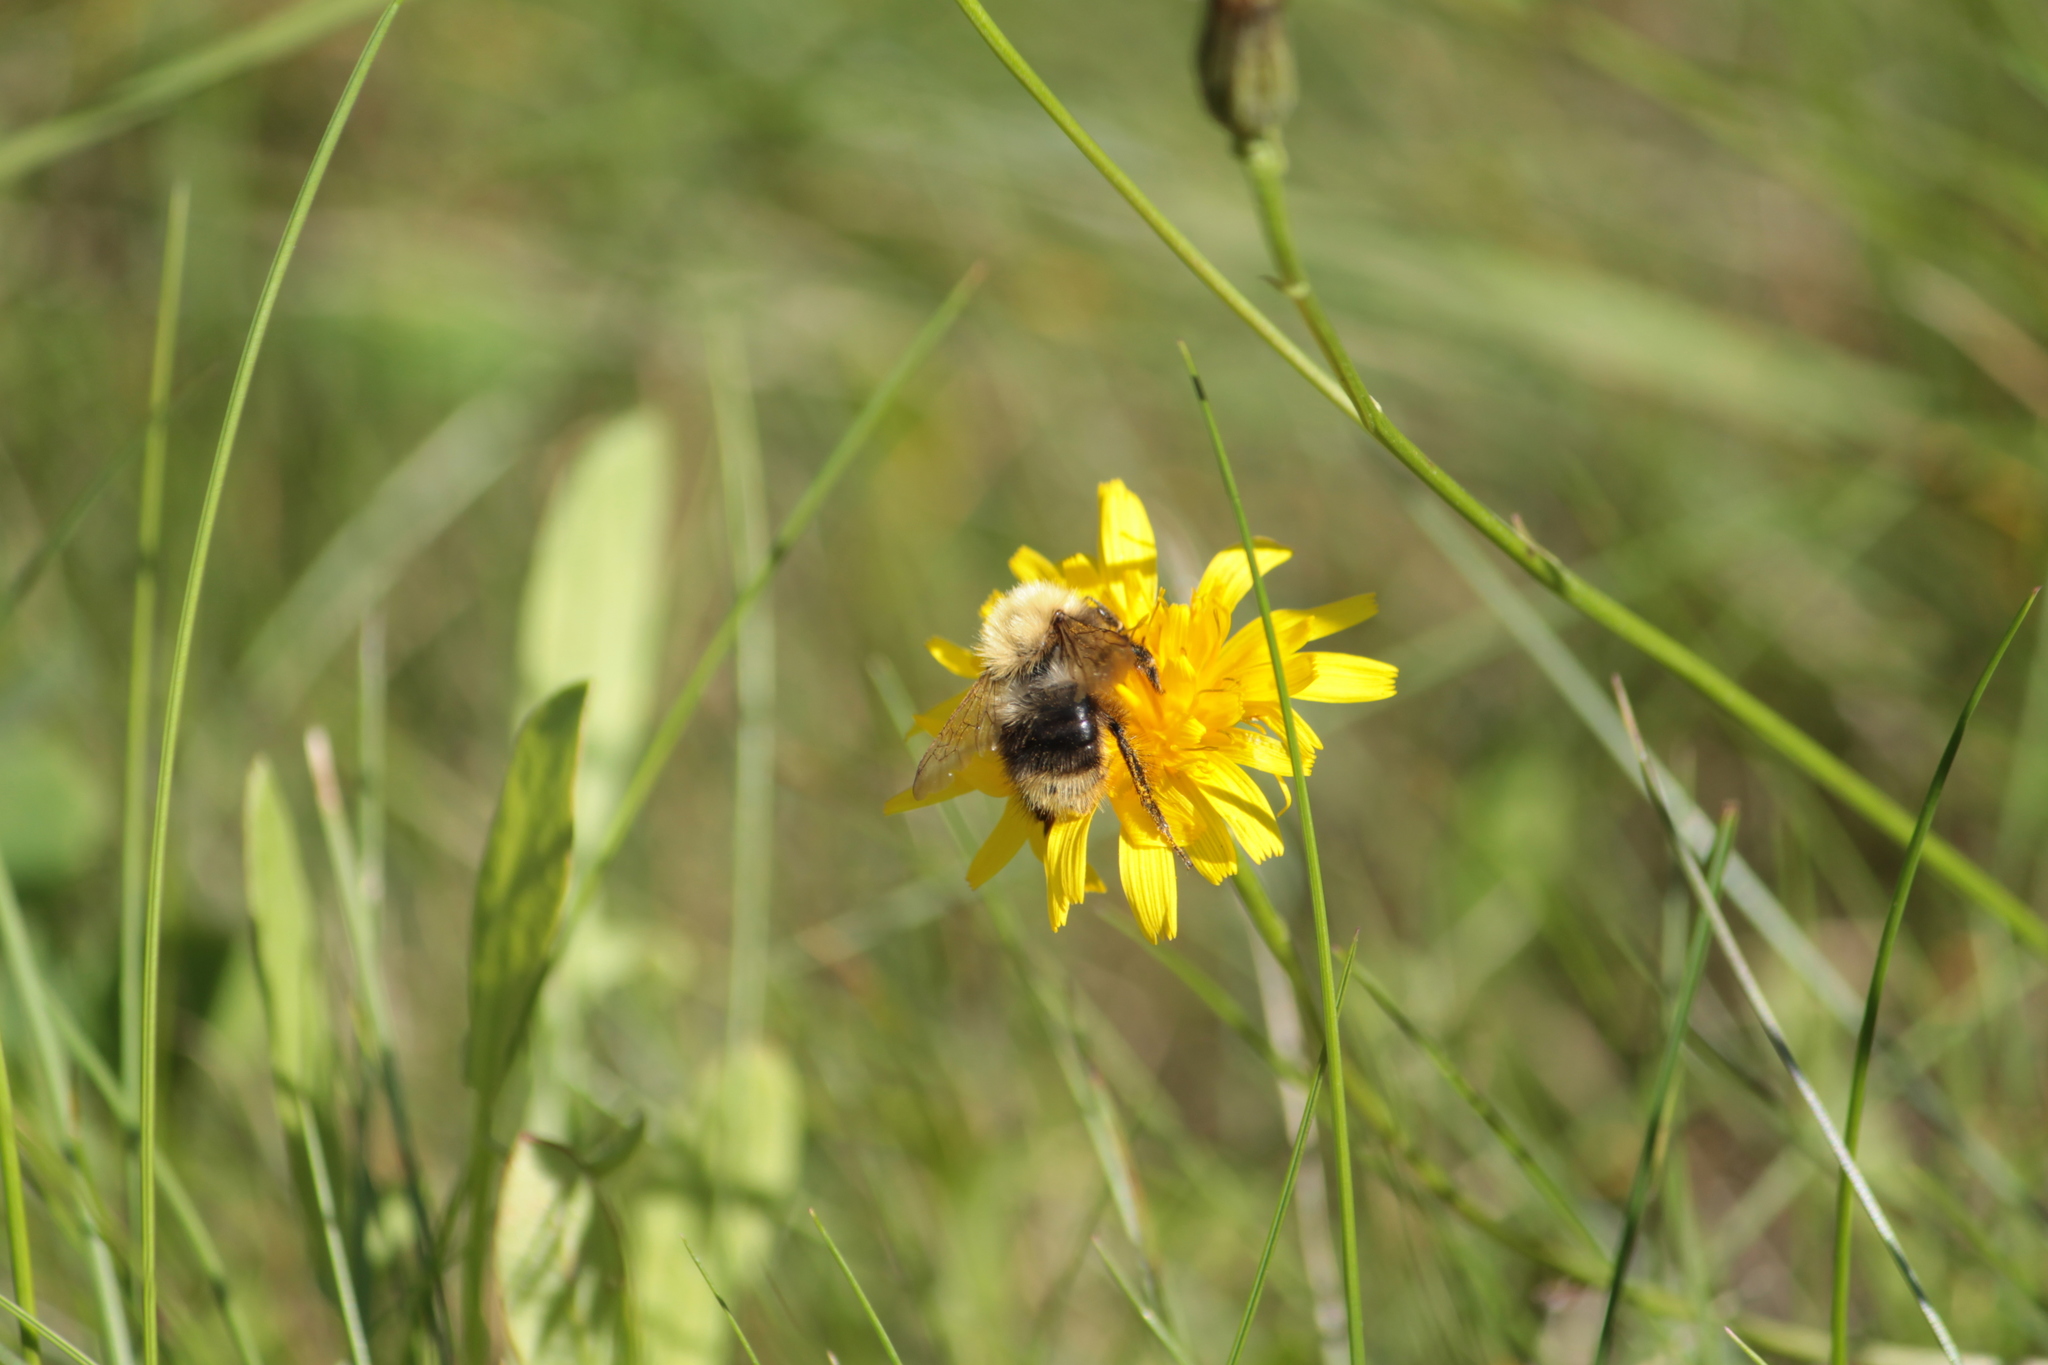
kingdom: Animalia
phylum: Arthropoda
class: Insecta
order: Hymenoptera
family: Apidae
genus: Bombus
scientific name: Bombus pascuorum
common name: Common carder bee
